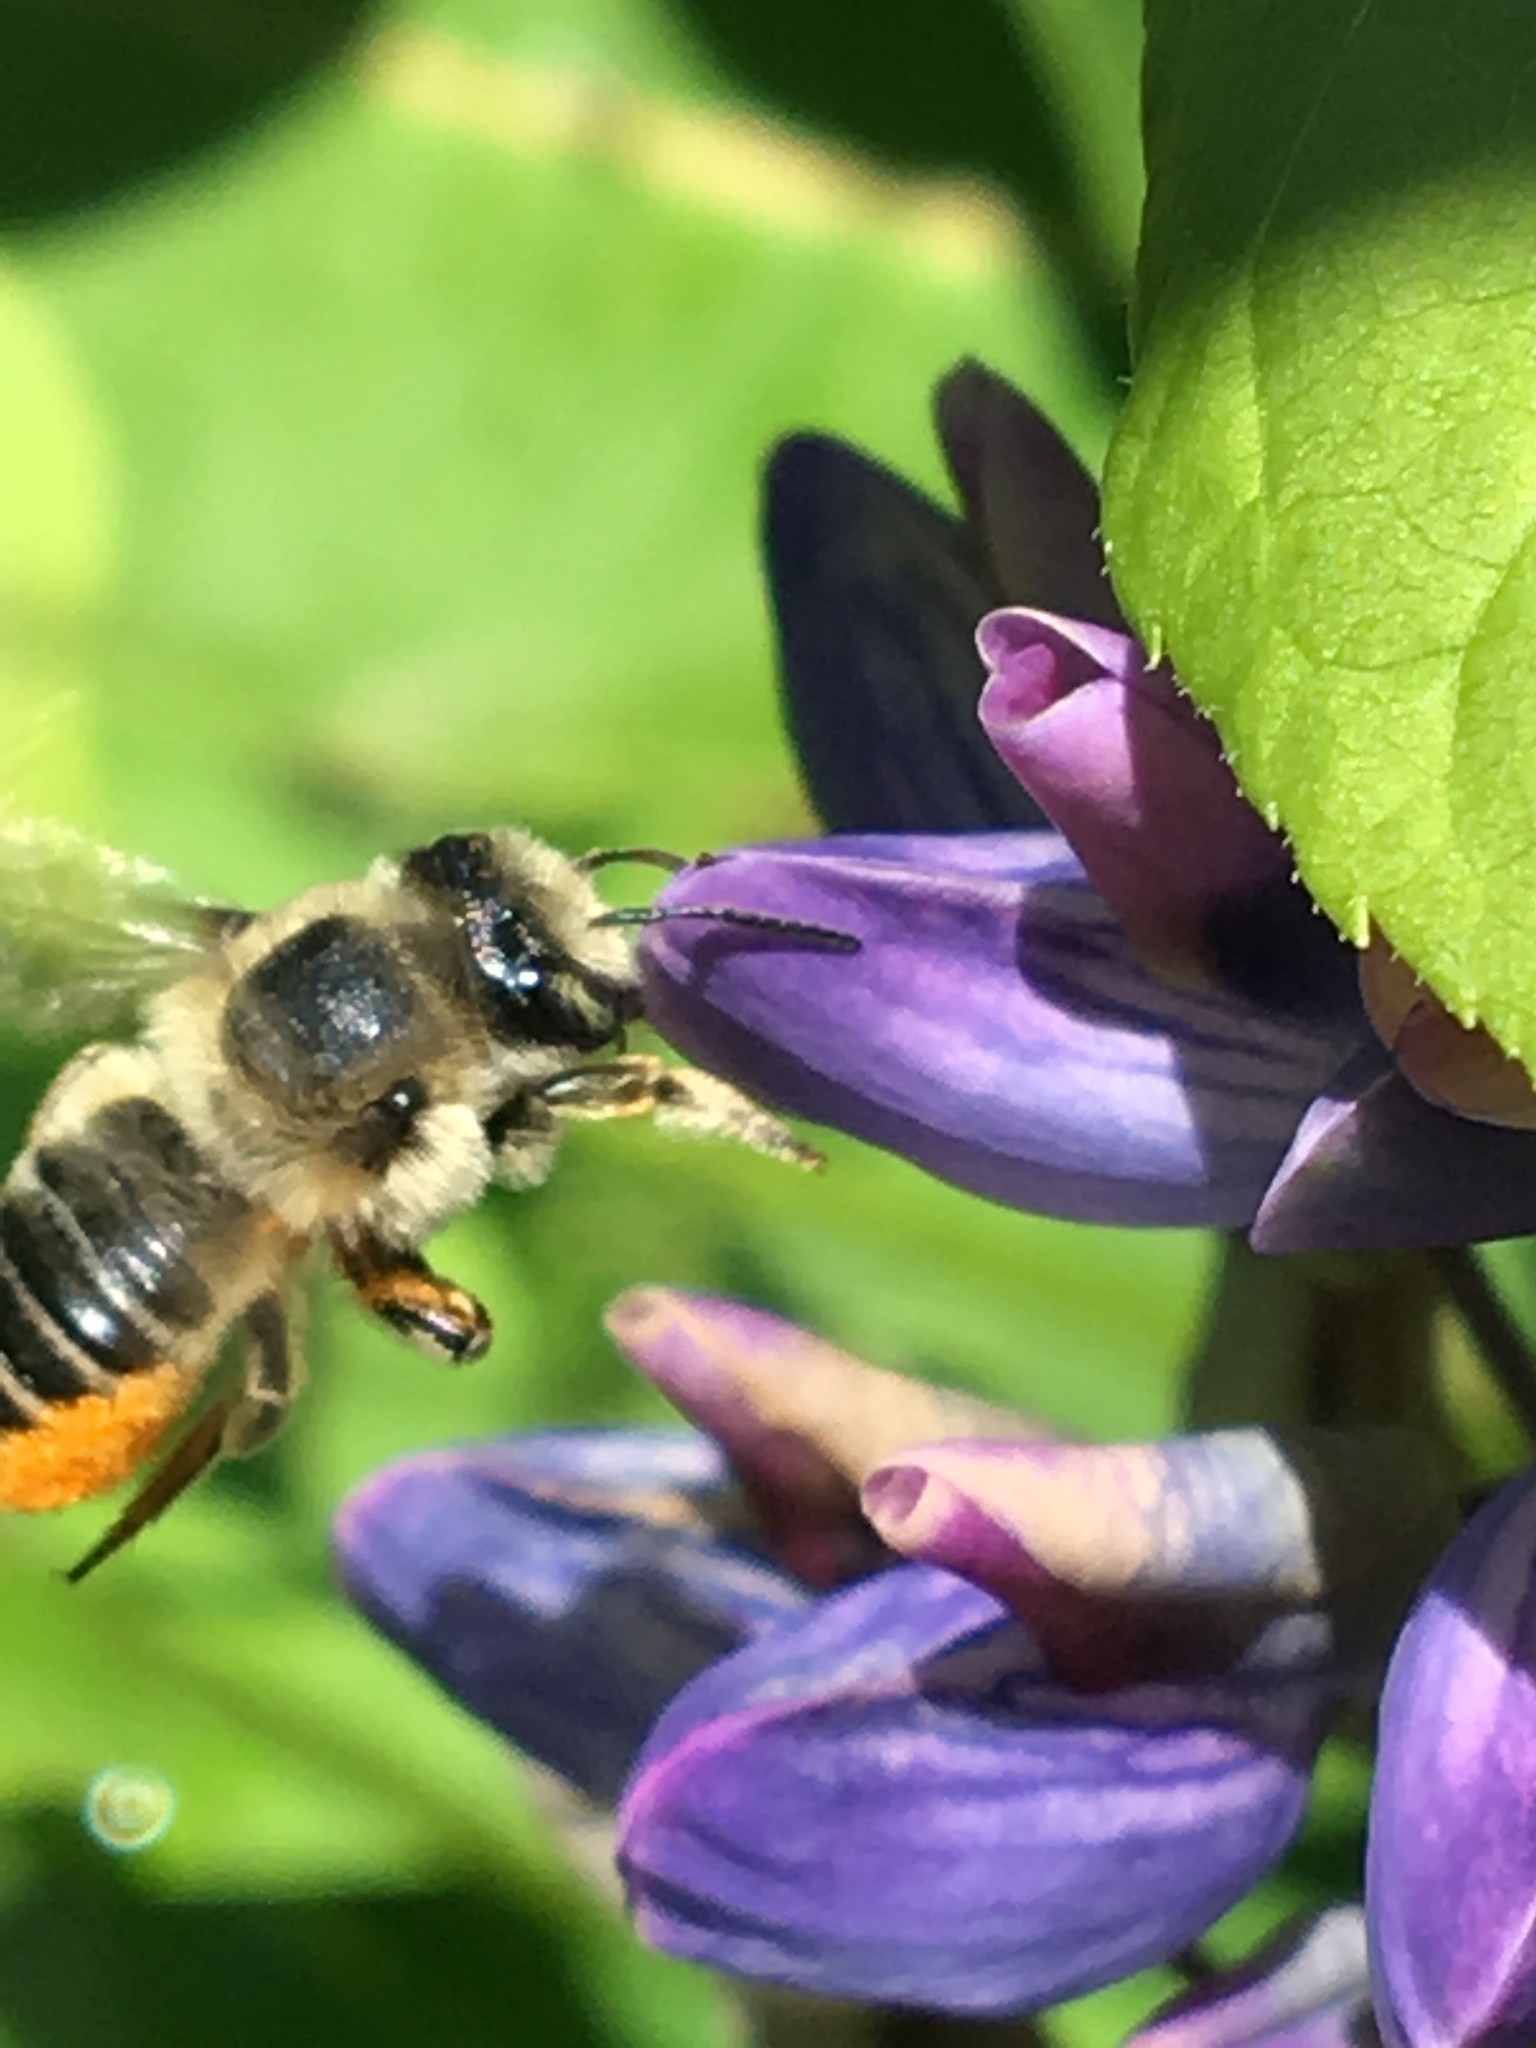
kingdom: Animalia
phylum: Arthropoda
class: Insecta
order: Hymenoptera
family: Megachilidae
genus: Megachile
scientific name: Megachile latimanus
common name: Leafcutting bee
